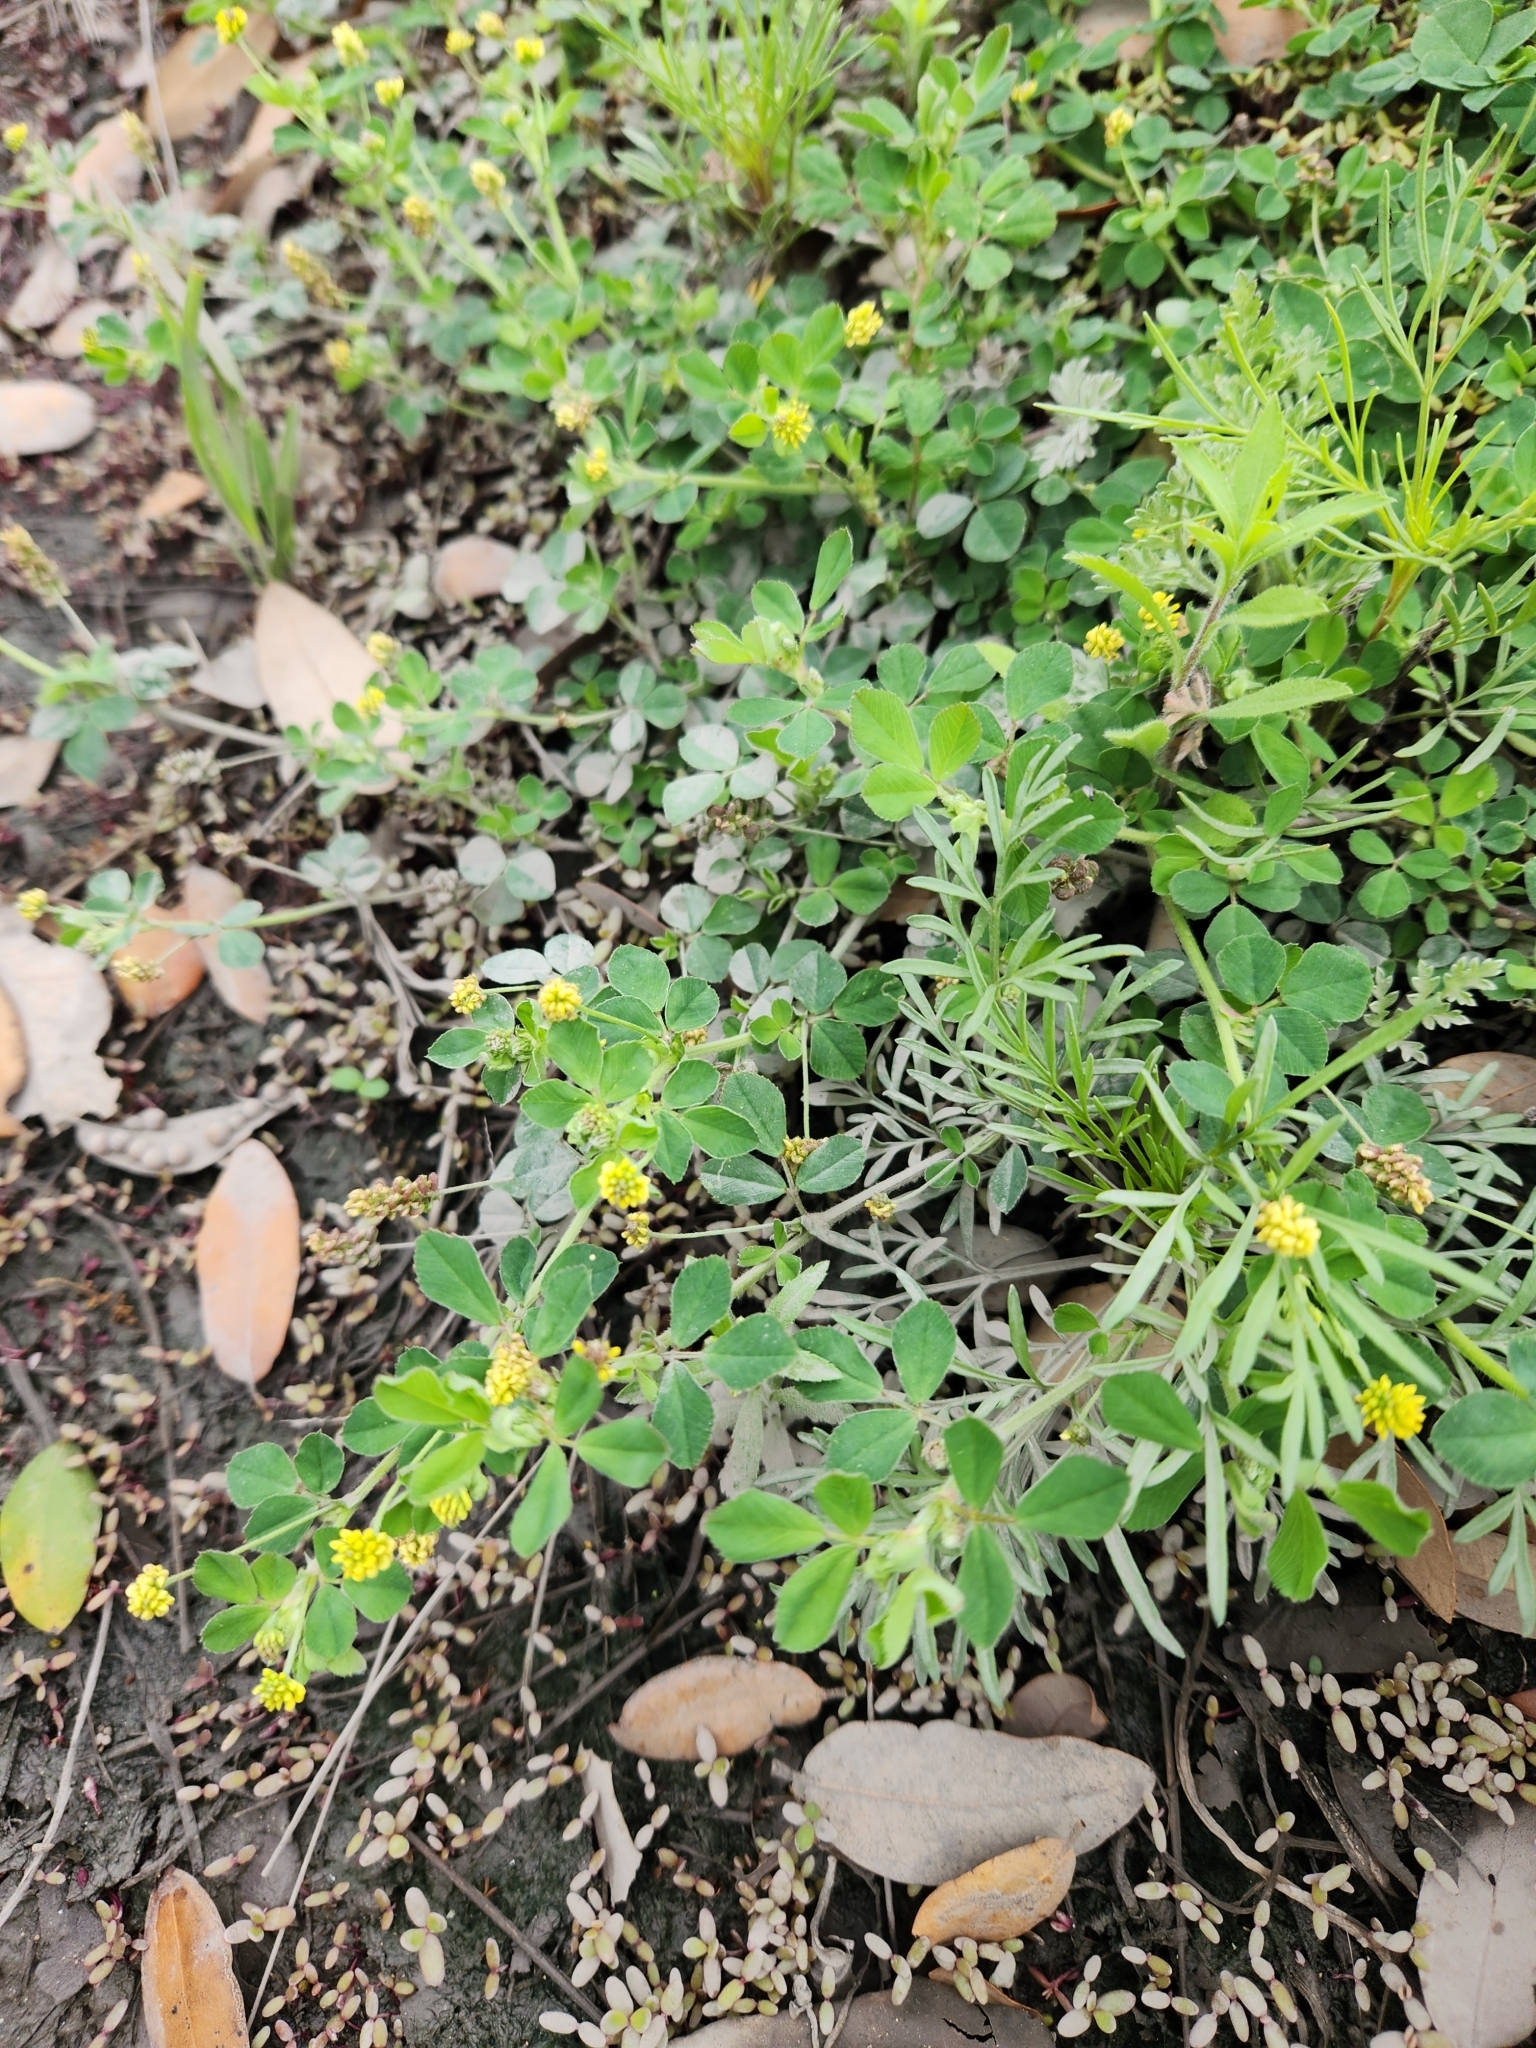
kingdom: Plantae
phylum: Tracheophyta
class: Magnoliopsida
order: Fabales
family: Fabaceae
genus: Medicago
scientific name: Medicago lupulina
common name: Black medick
